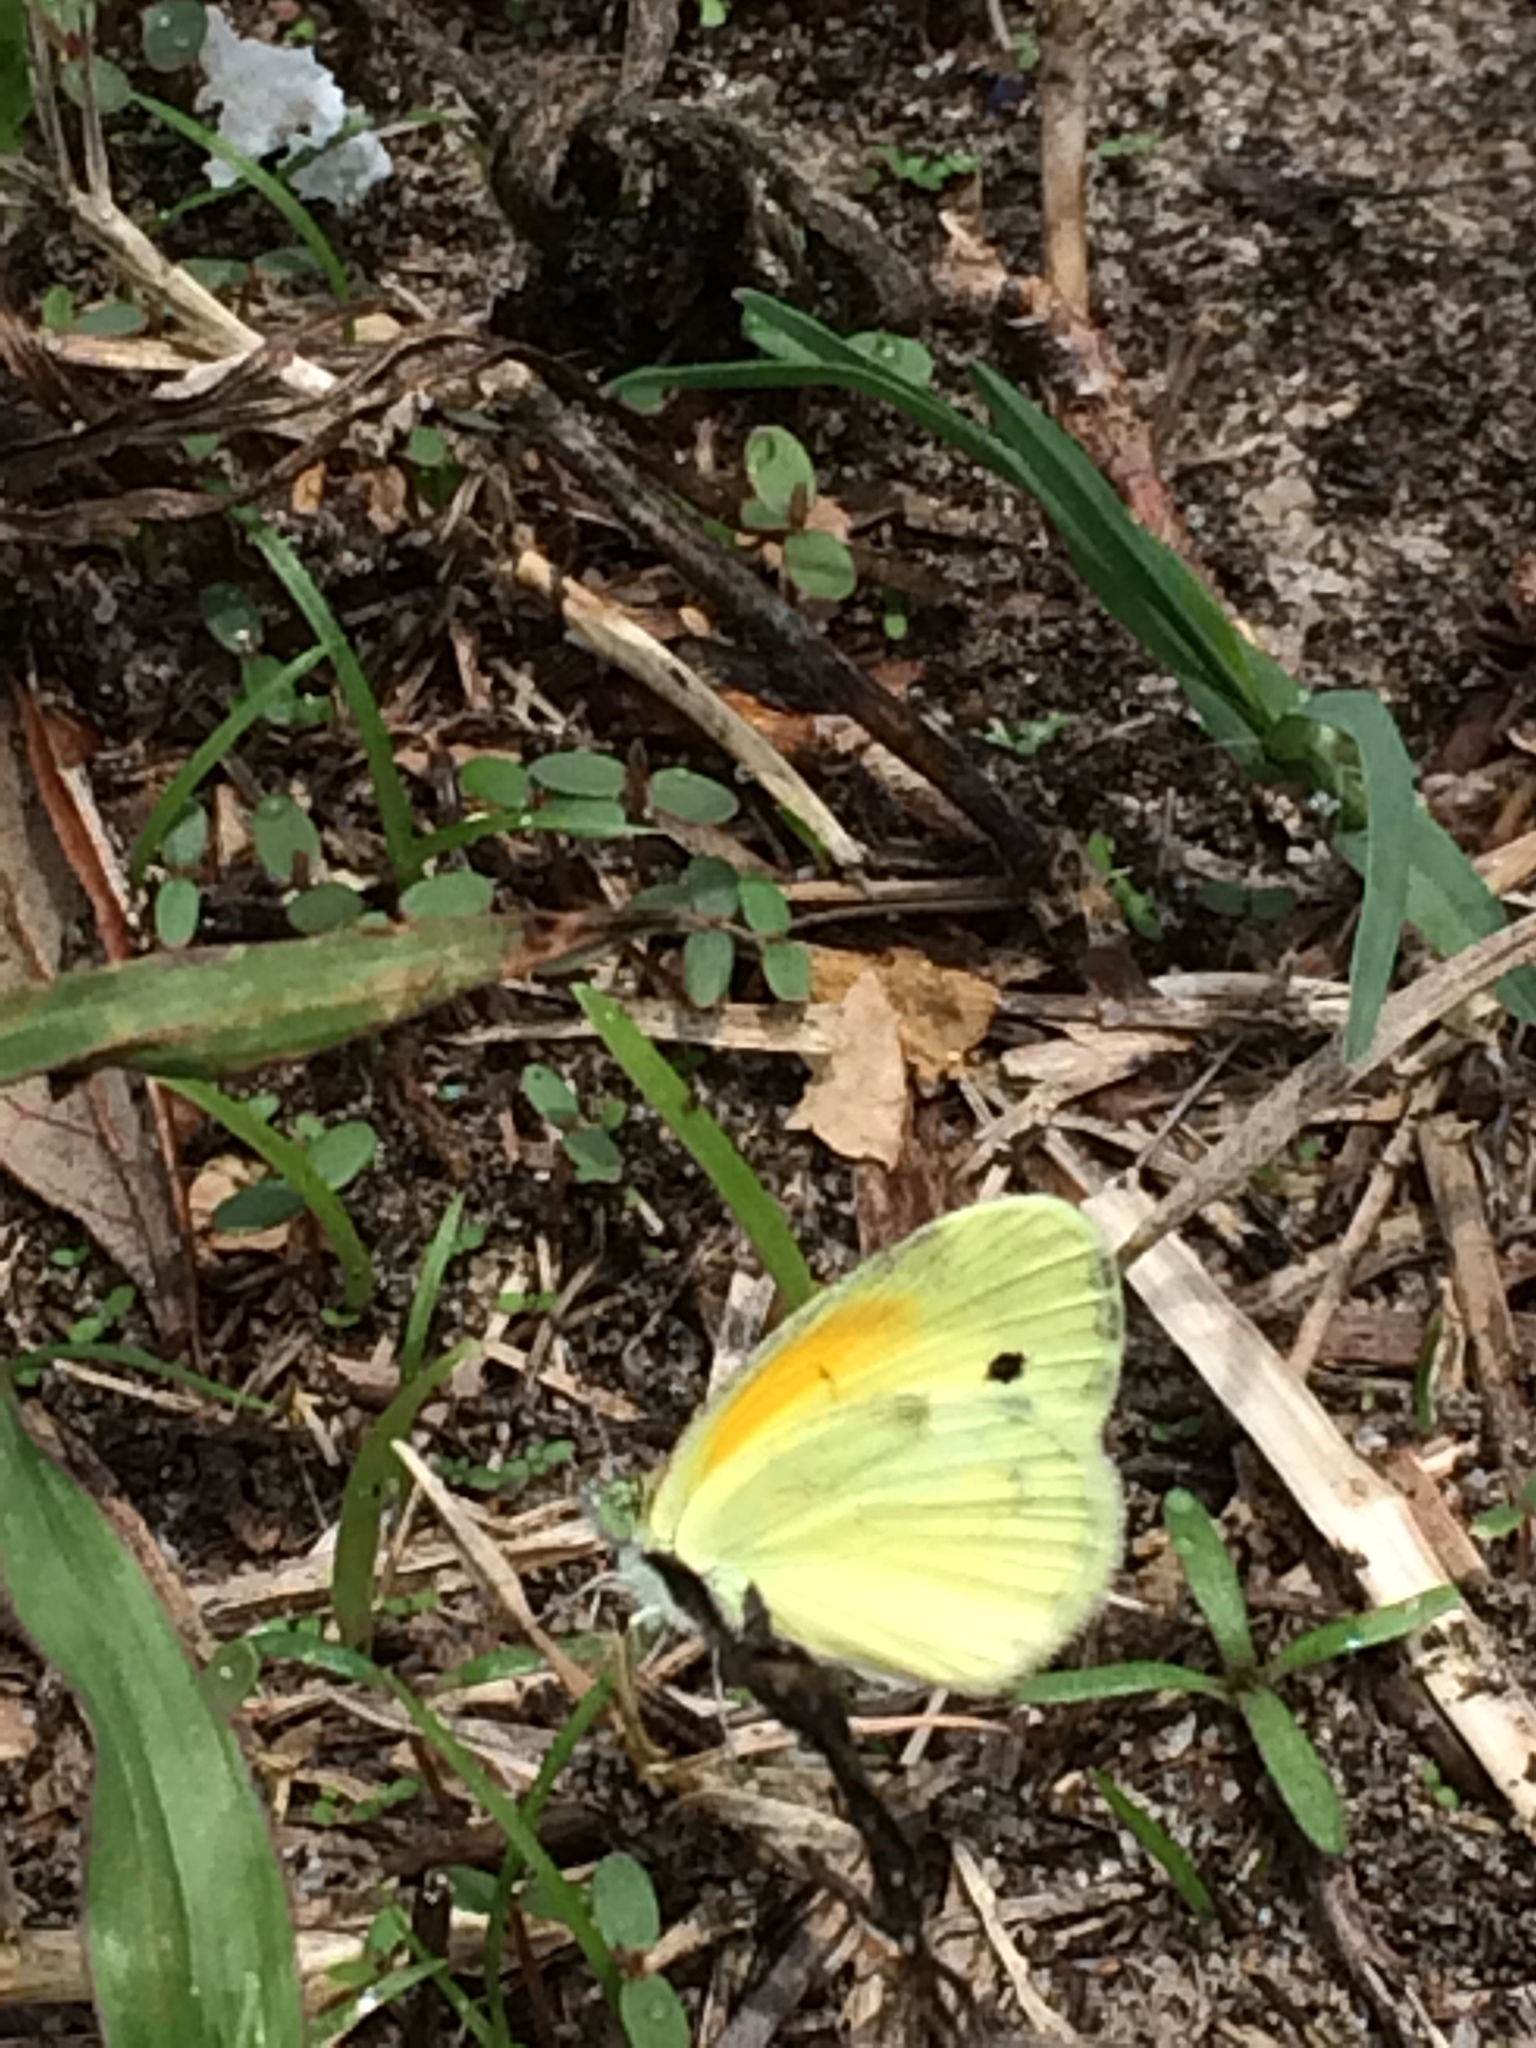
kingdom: Animalia
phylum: Arthropoda
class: Insecta
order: Lepidoptera
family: Pieridae
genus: Nathalis
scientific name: Nathalis iole
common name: Dainty sulphur
